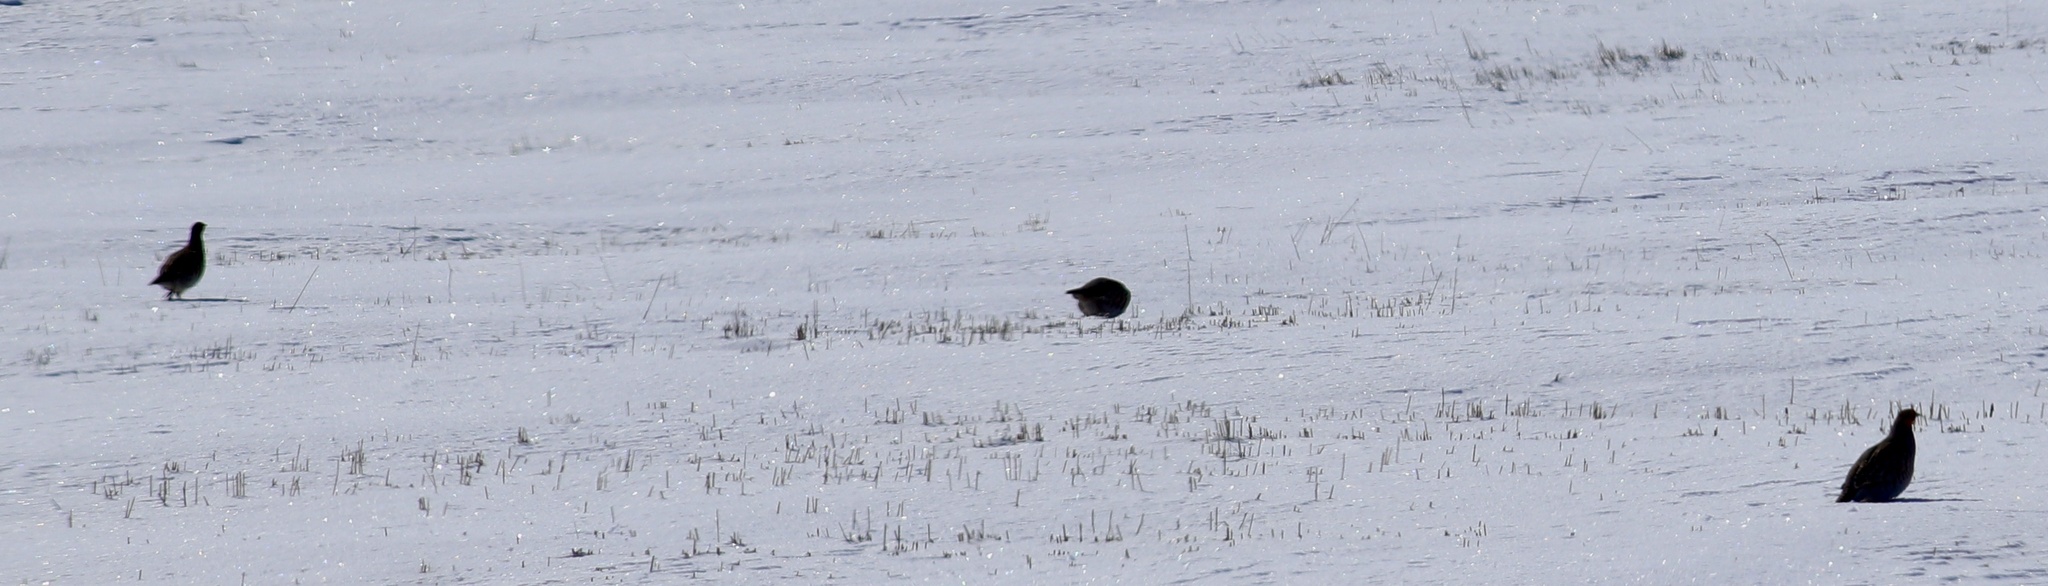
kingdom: Animalia
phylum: Chordata
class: Aves
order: Galliformes
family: Phasianidae
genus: Perdix
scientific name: Perdix perdix
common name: Grey partridge
